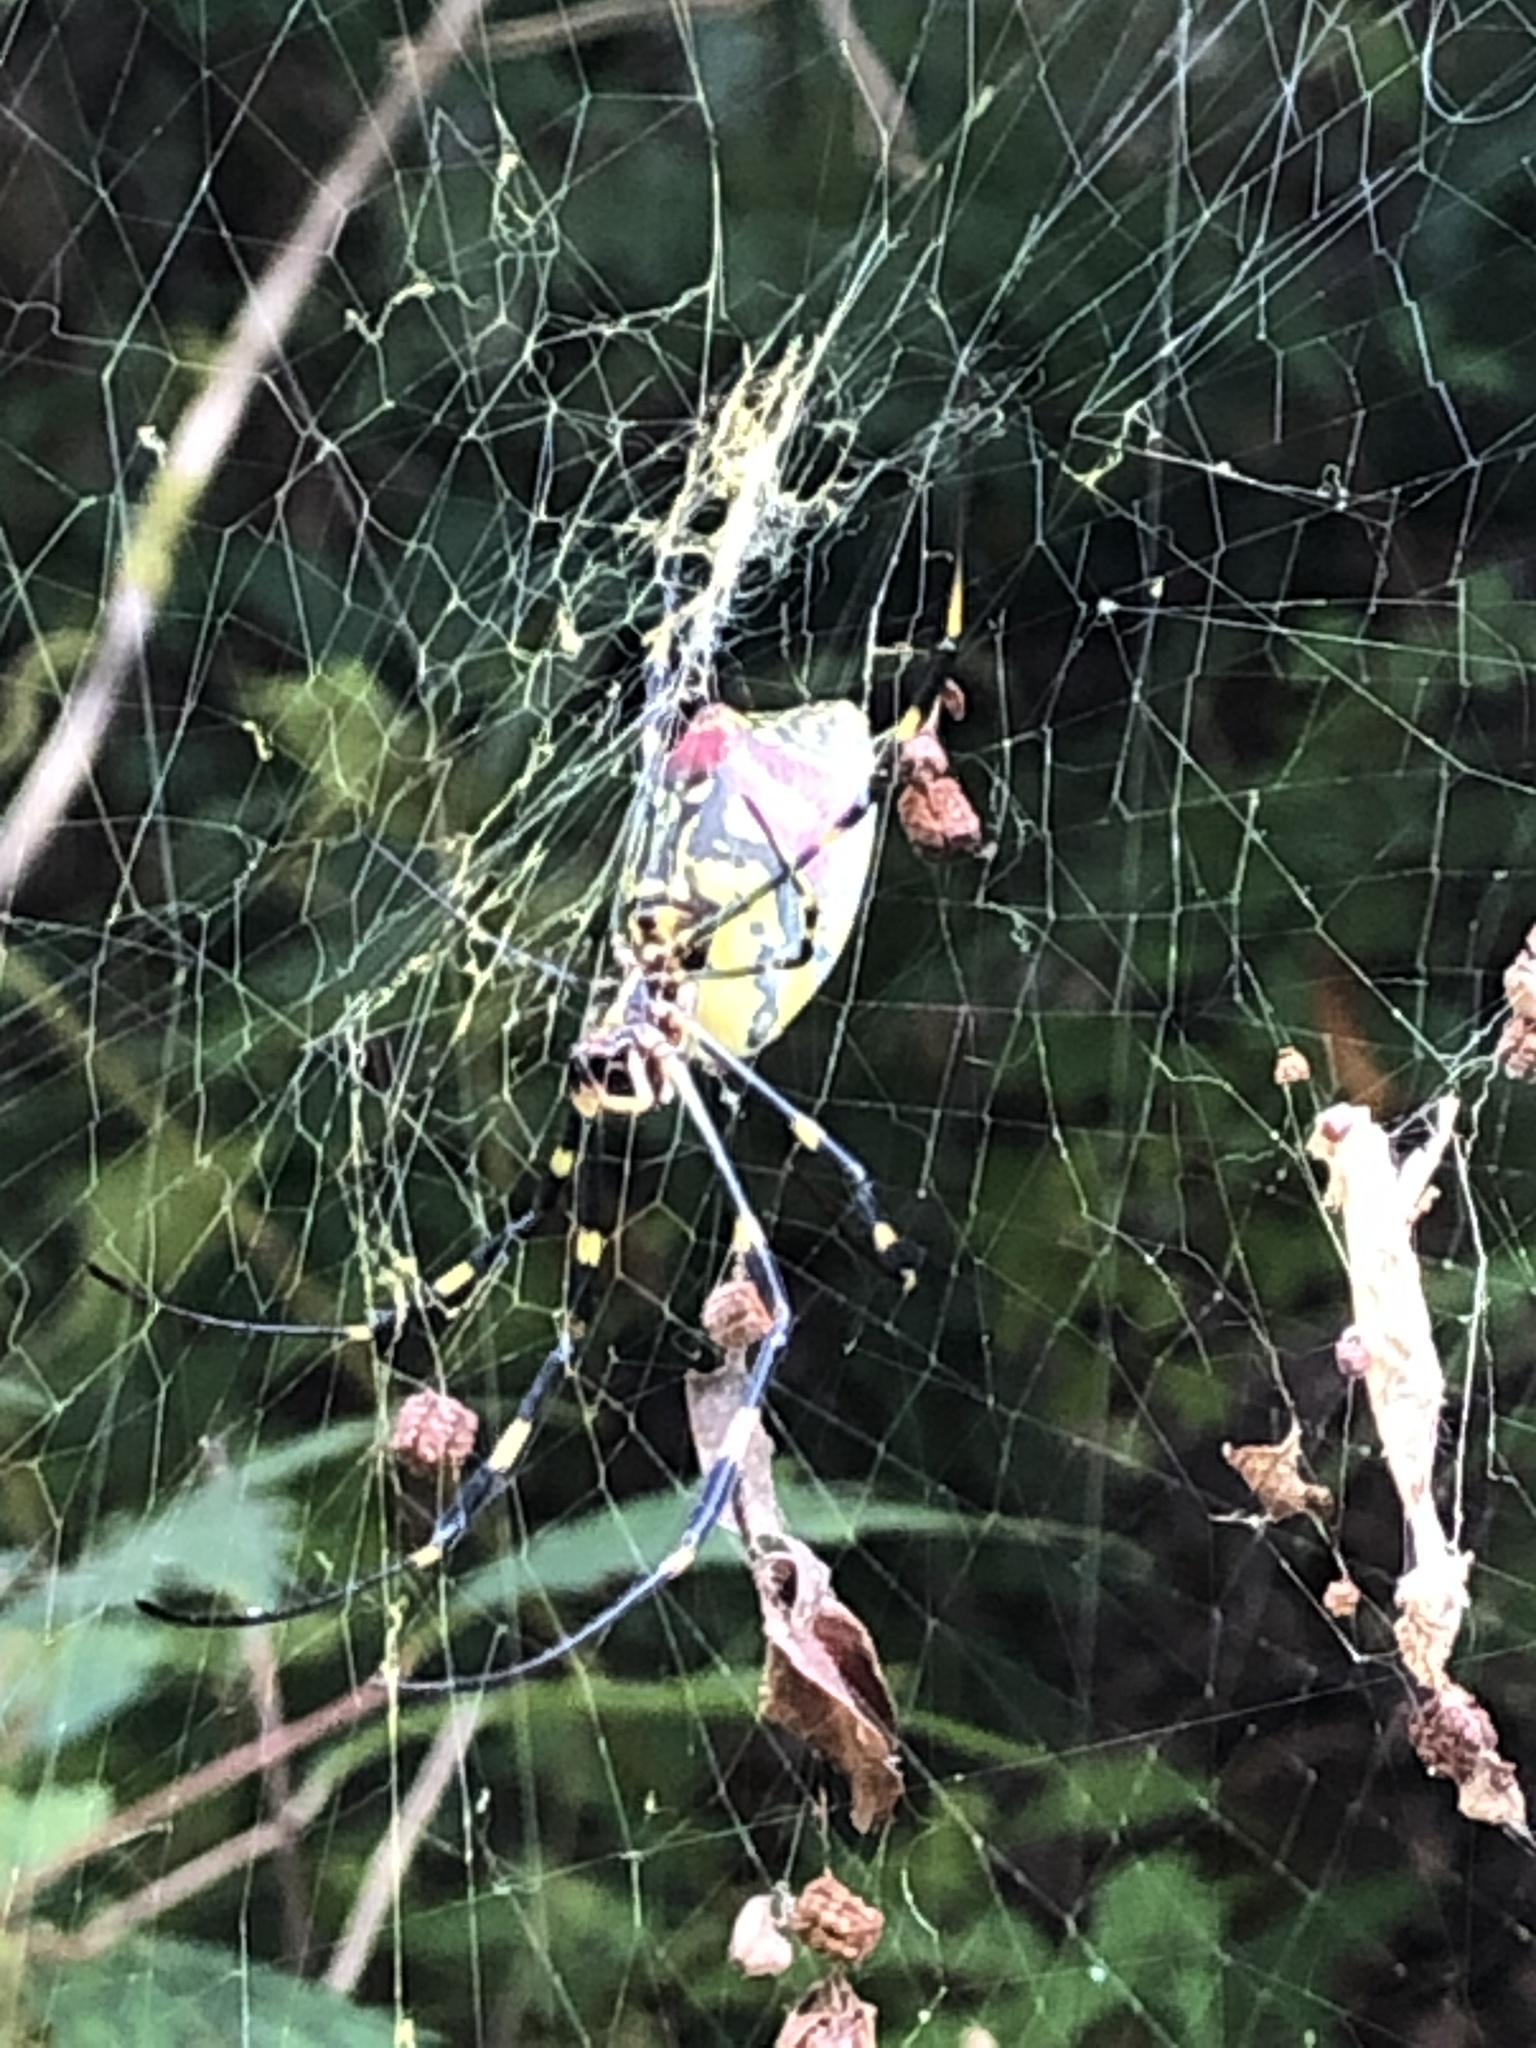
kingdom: Animalia
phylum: Arthropoda
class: Arachnida
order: Araneae
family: Araneidae
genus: Trichonephila
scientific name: Trichonephila clavata
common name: Jorō spider
